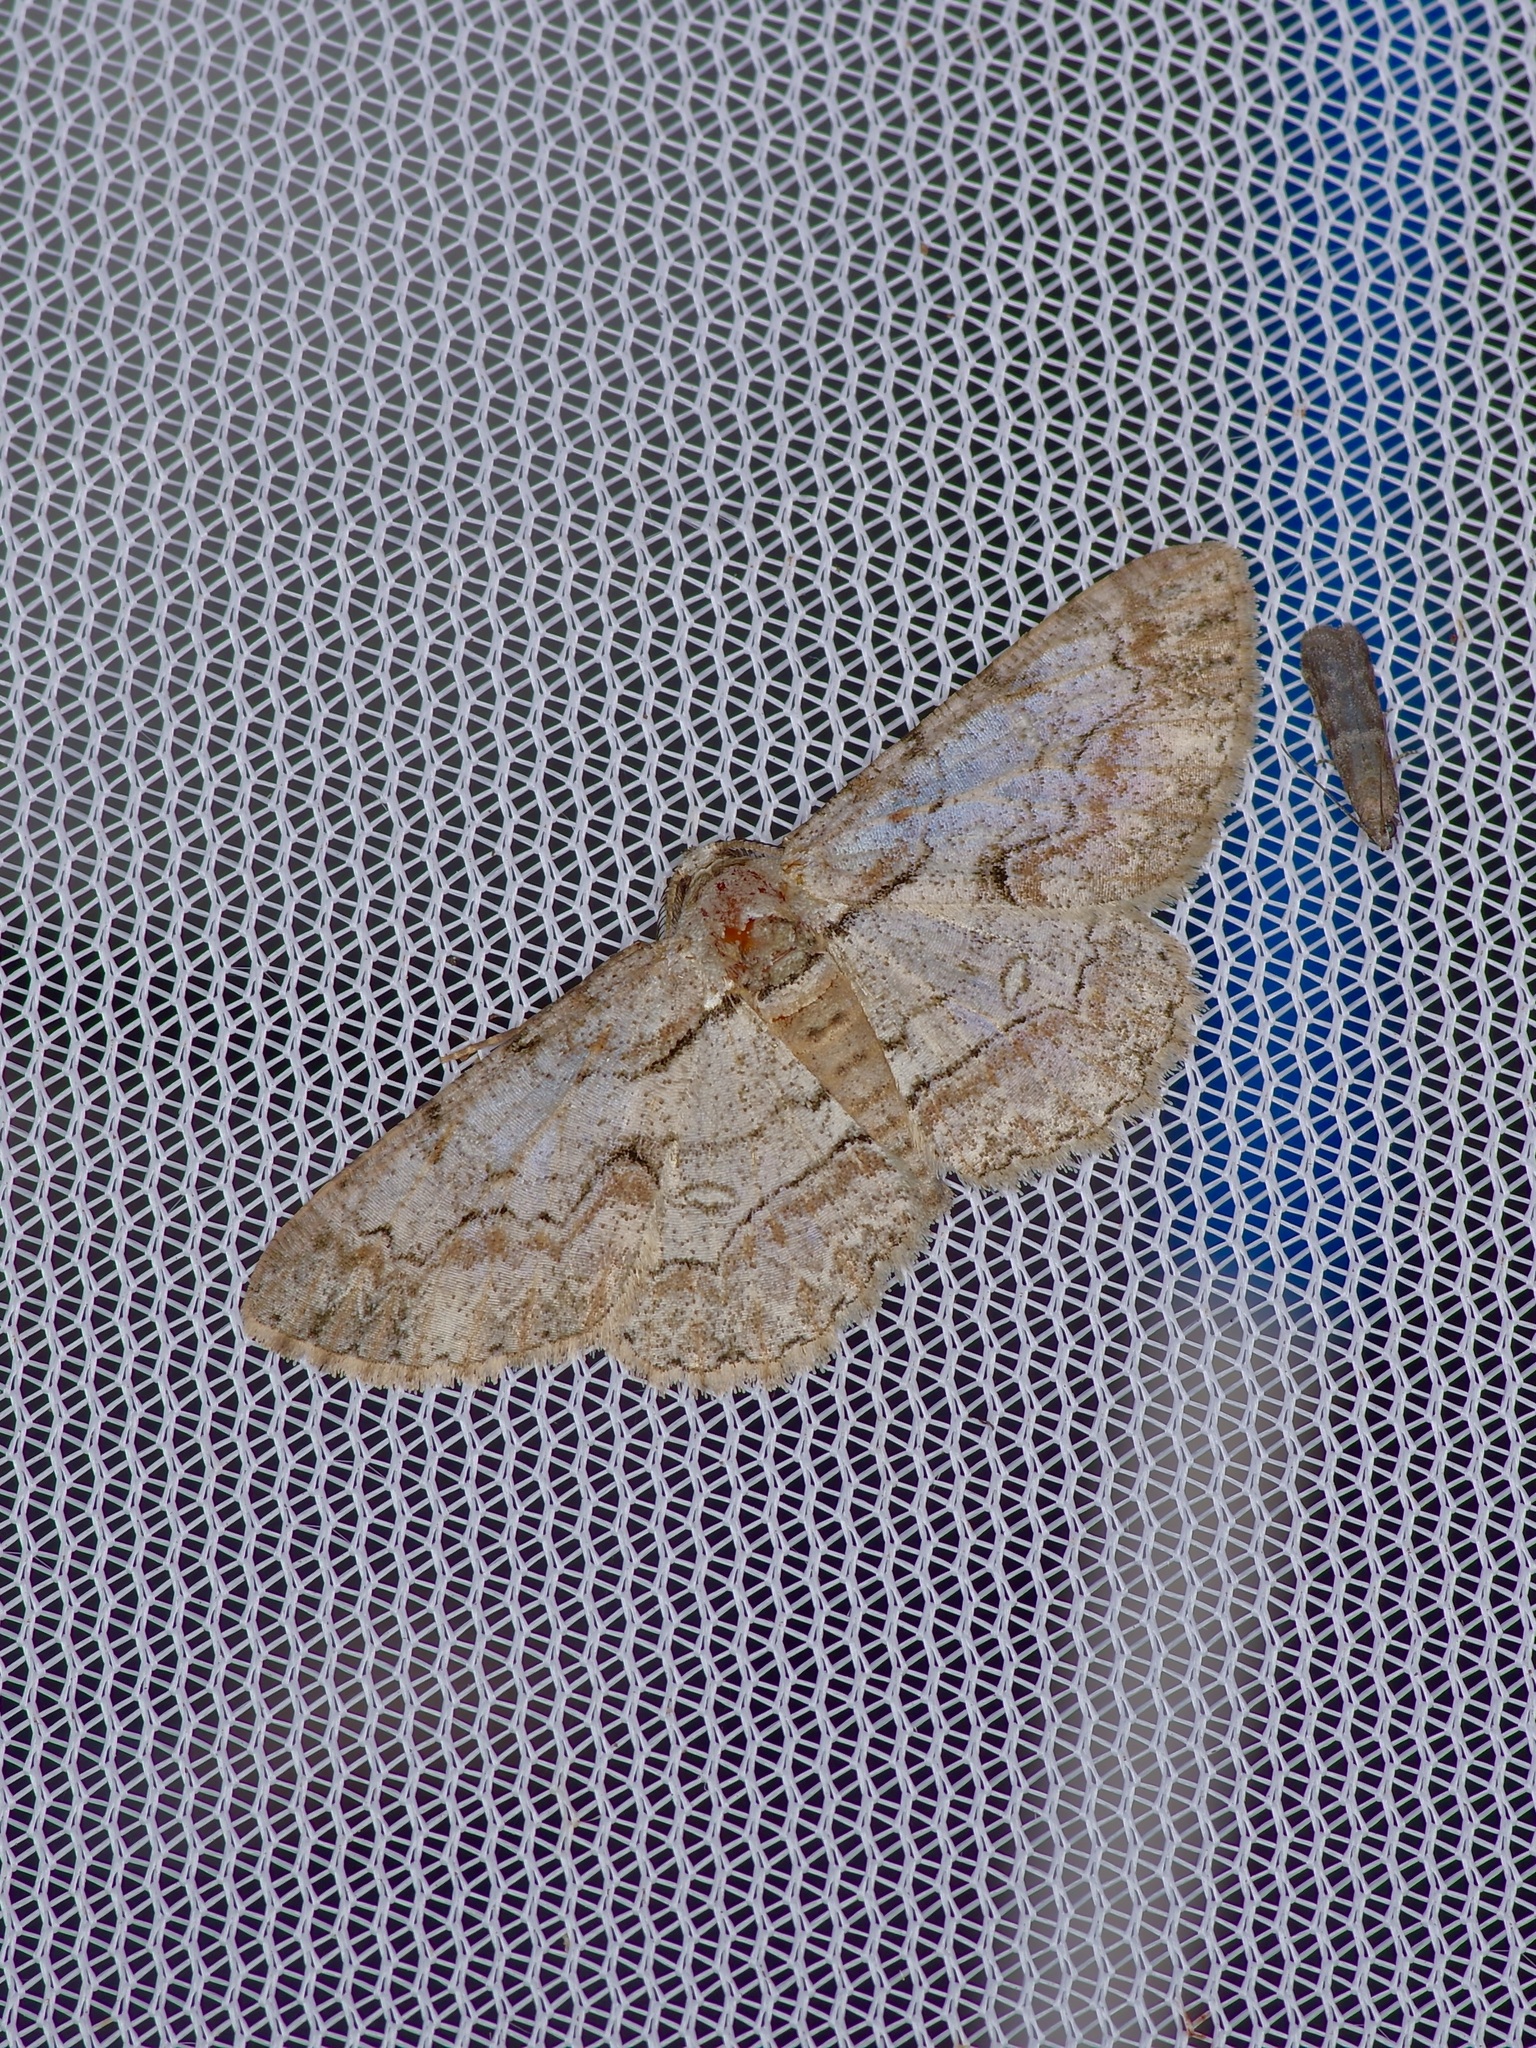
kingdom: Animalia
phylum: Arthropoda
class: Insecta
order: Lepidoptera
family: Geometridae
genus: Iridopsis
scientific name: Iridopsis defectaria
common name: Brown-shaded gray
